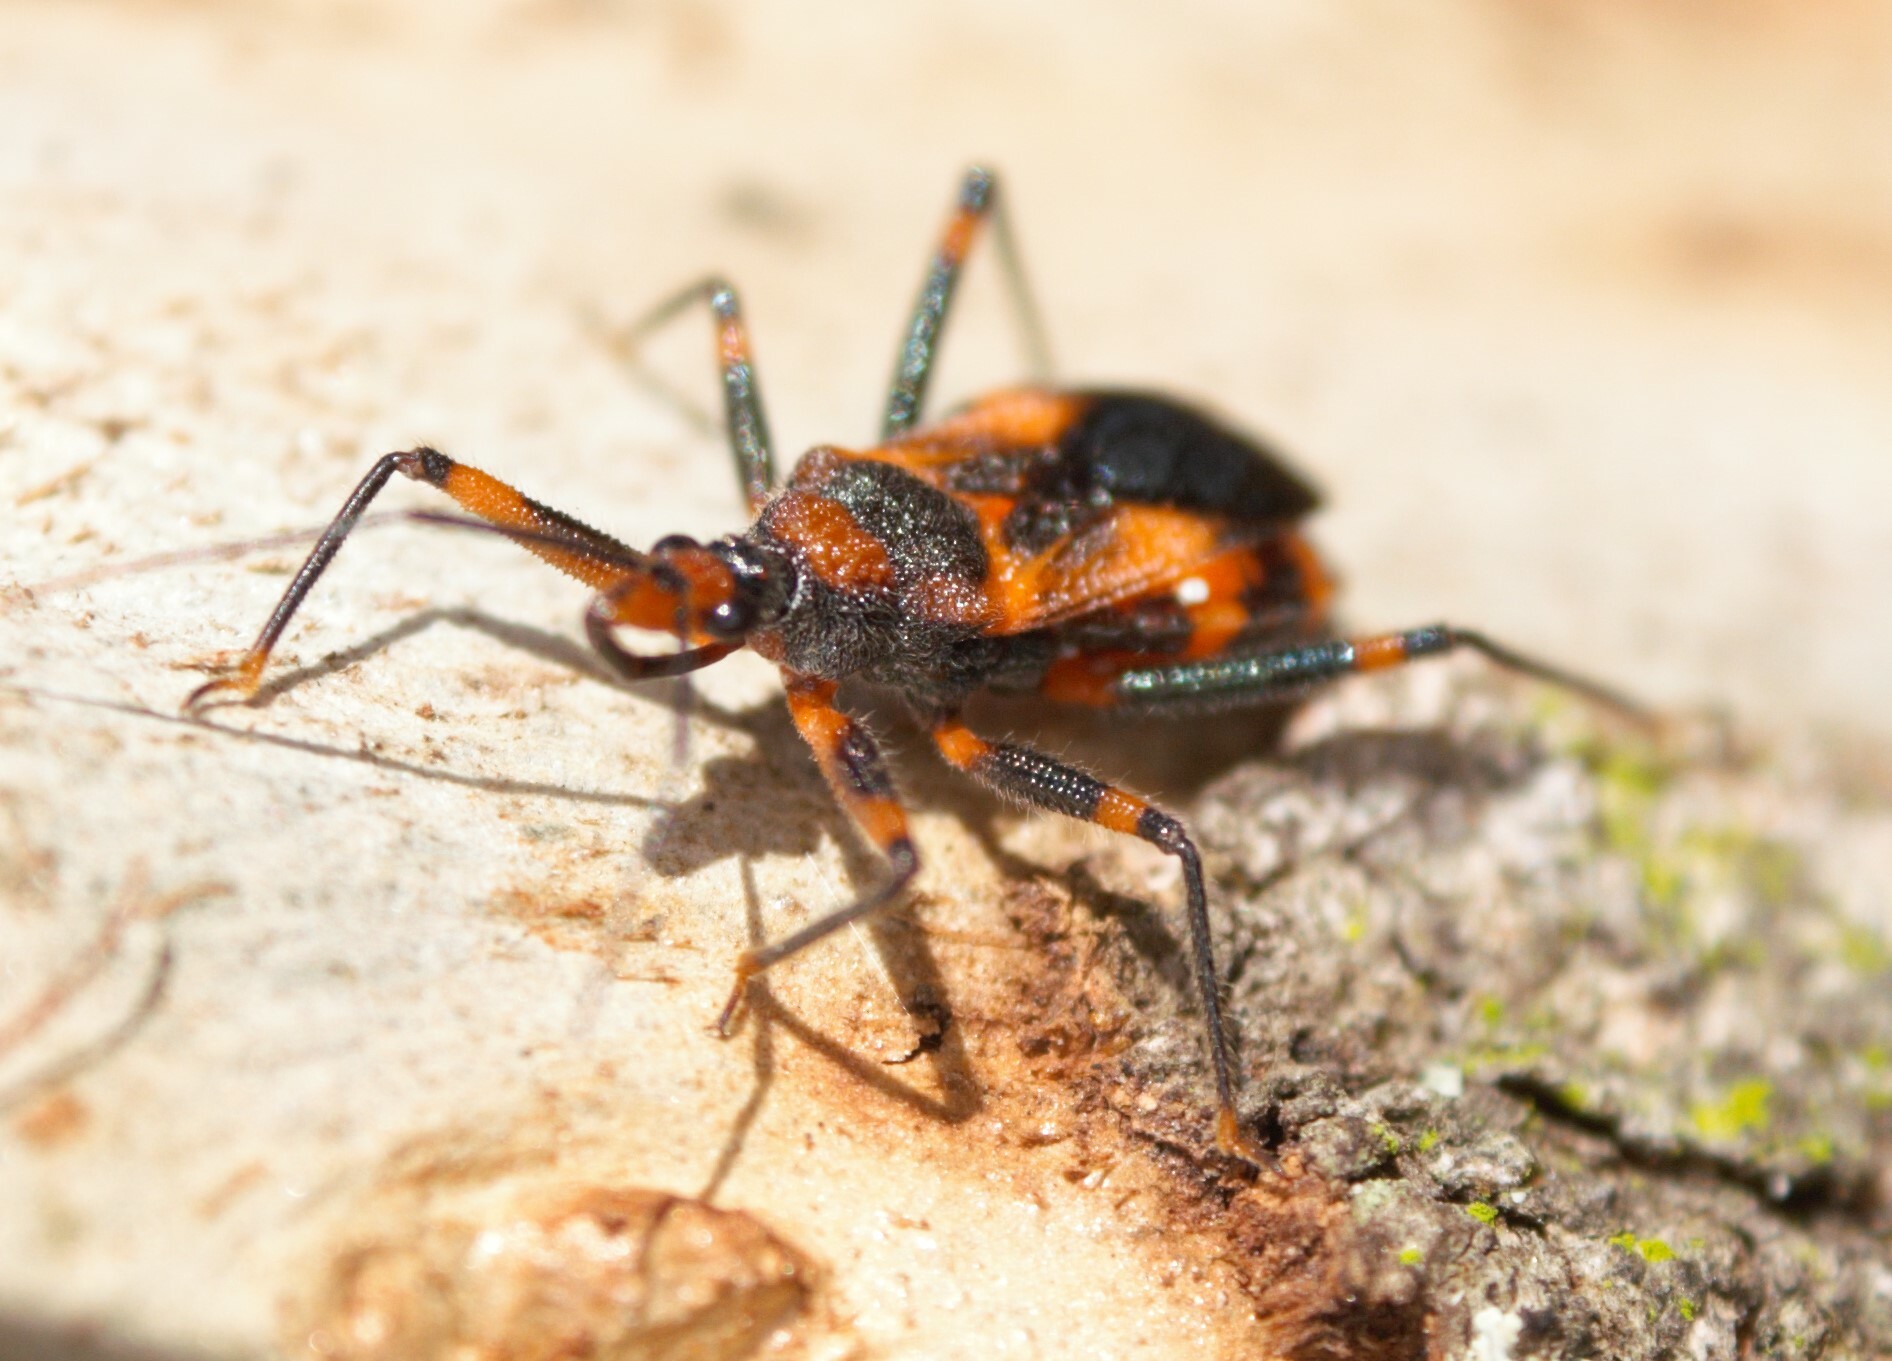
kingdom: Animalia
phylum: Arthropoda
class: Insecta
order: Hemiptera
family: Reduviidae
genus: Havinthus
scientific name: Havinthus rufovarius
